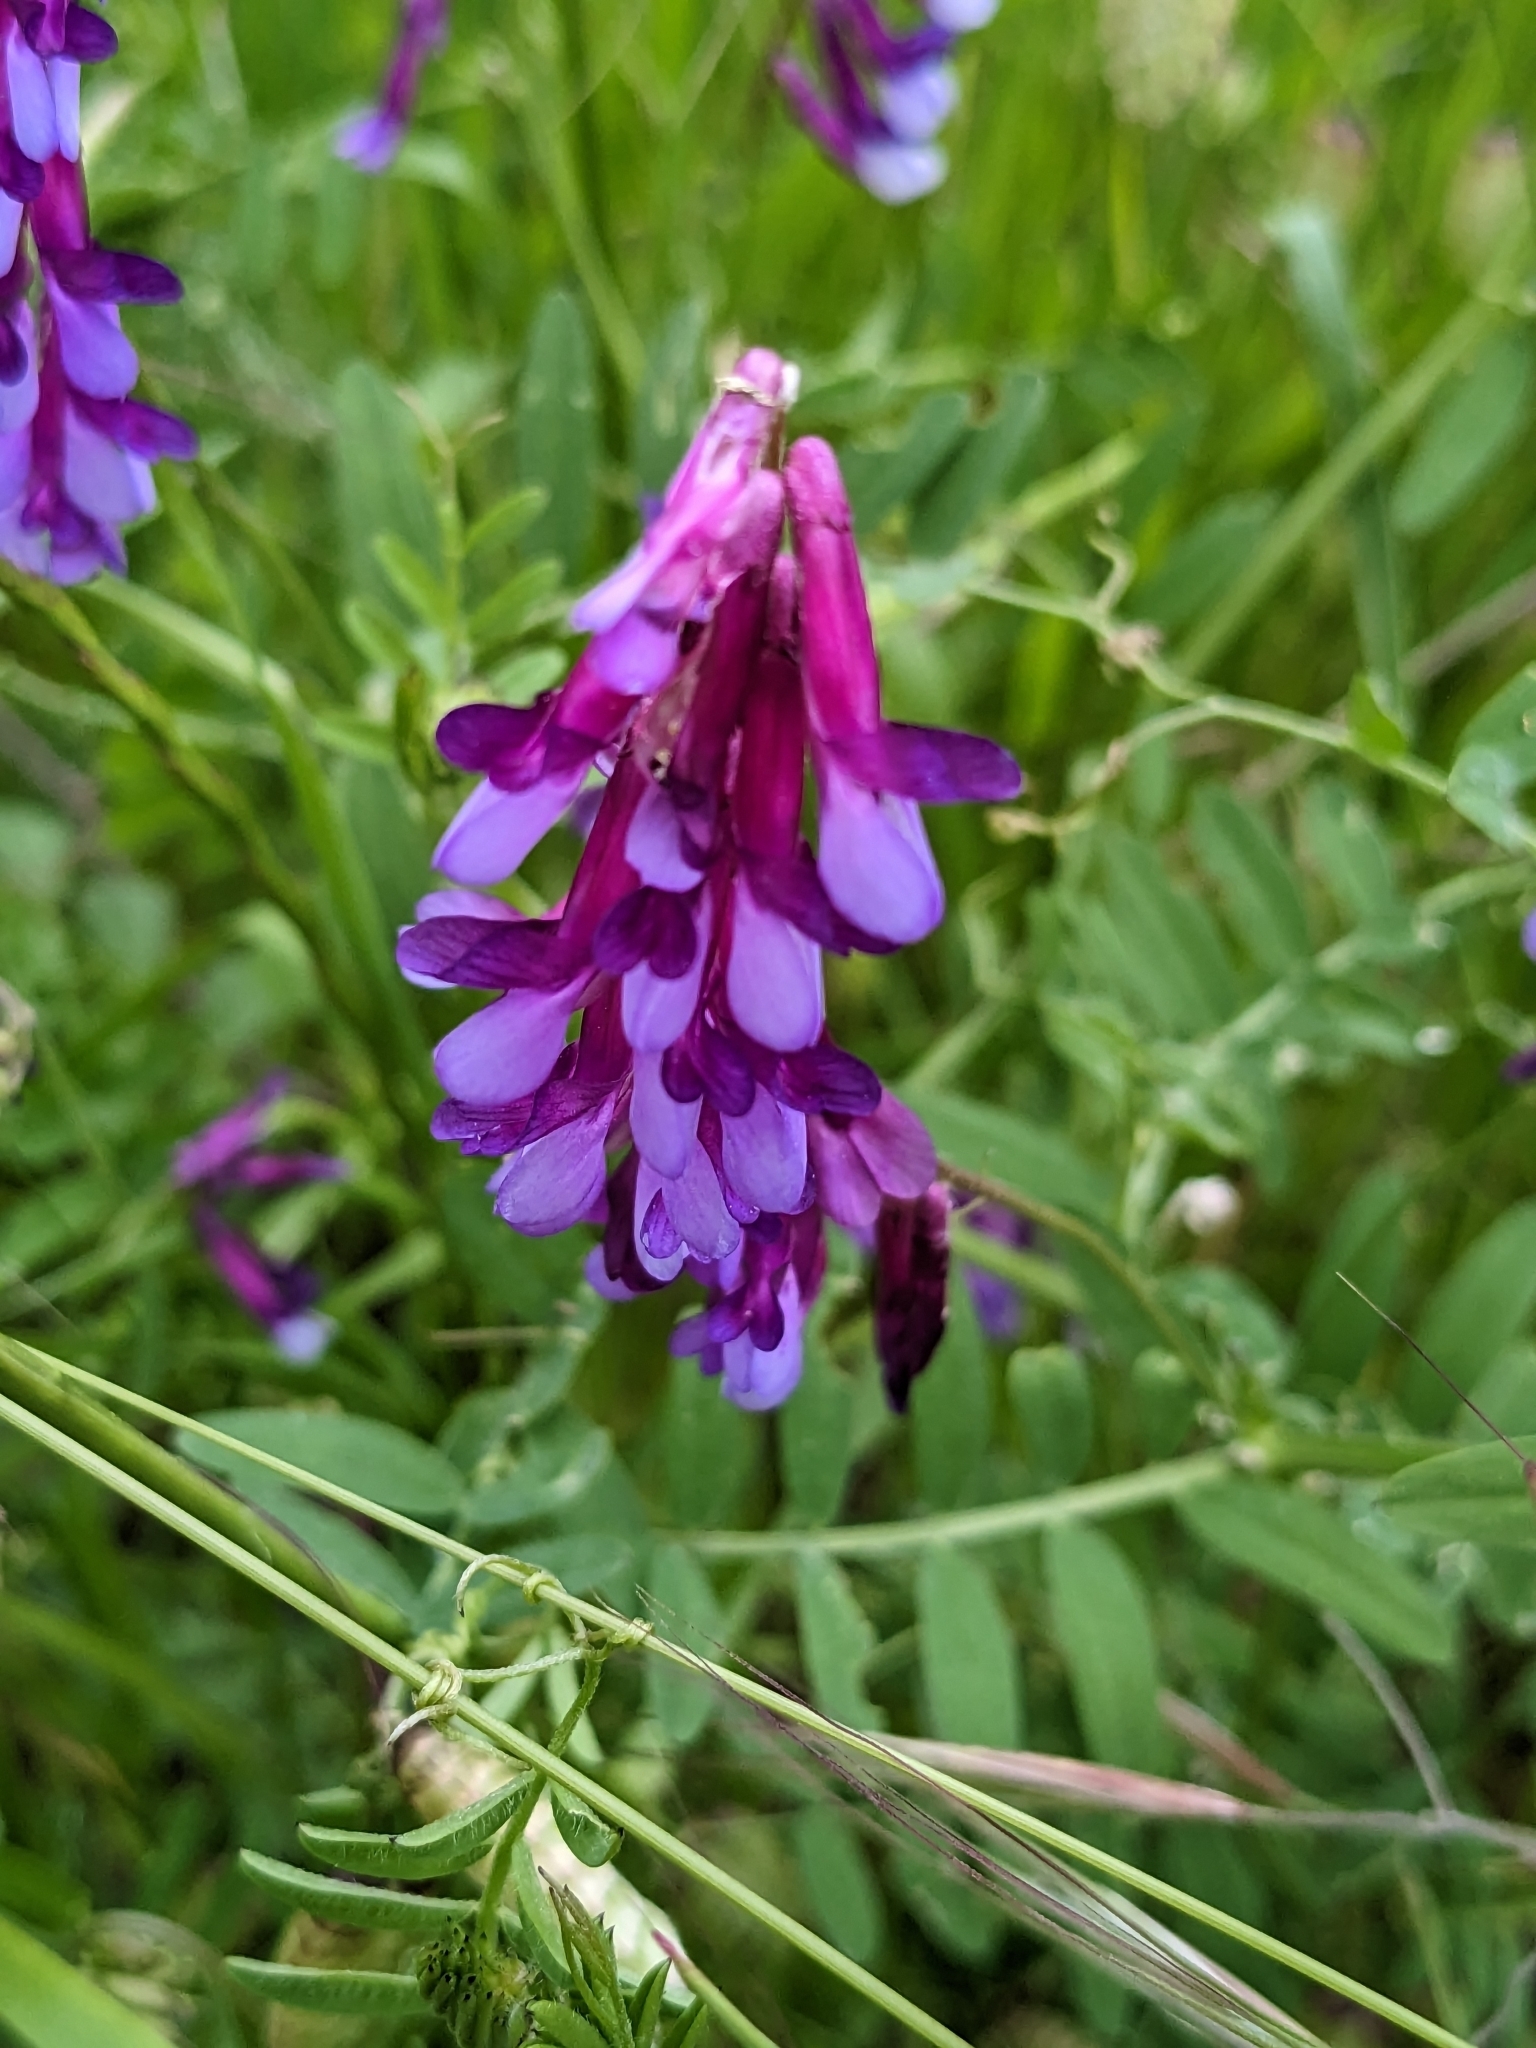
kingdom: Plantae
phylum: Tracheophyta
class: Magnoliopsida
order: Fabales
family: Fabaceae
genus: Vicia
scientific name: Vicia villosa
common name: Fodder vetch
